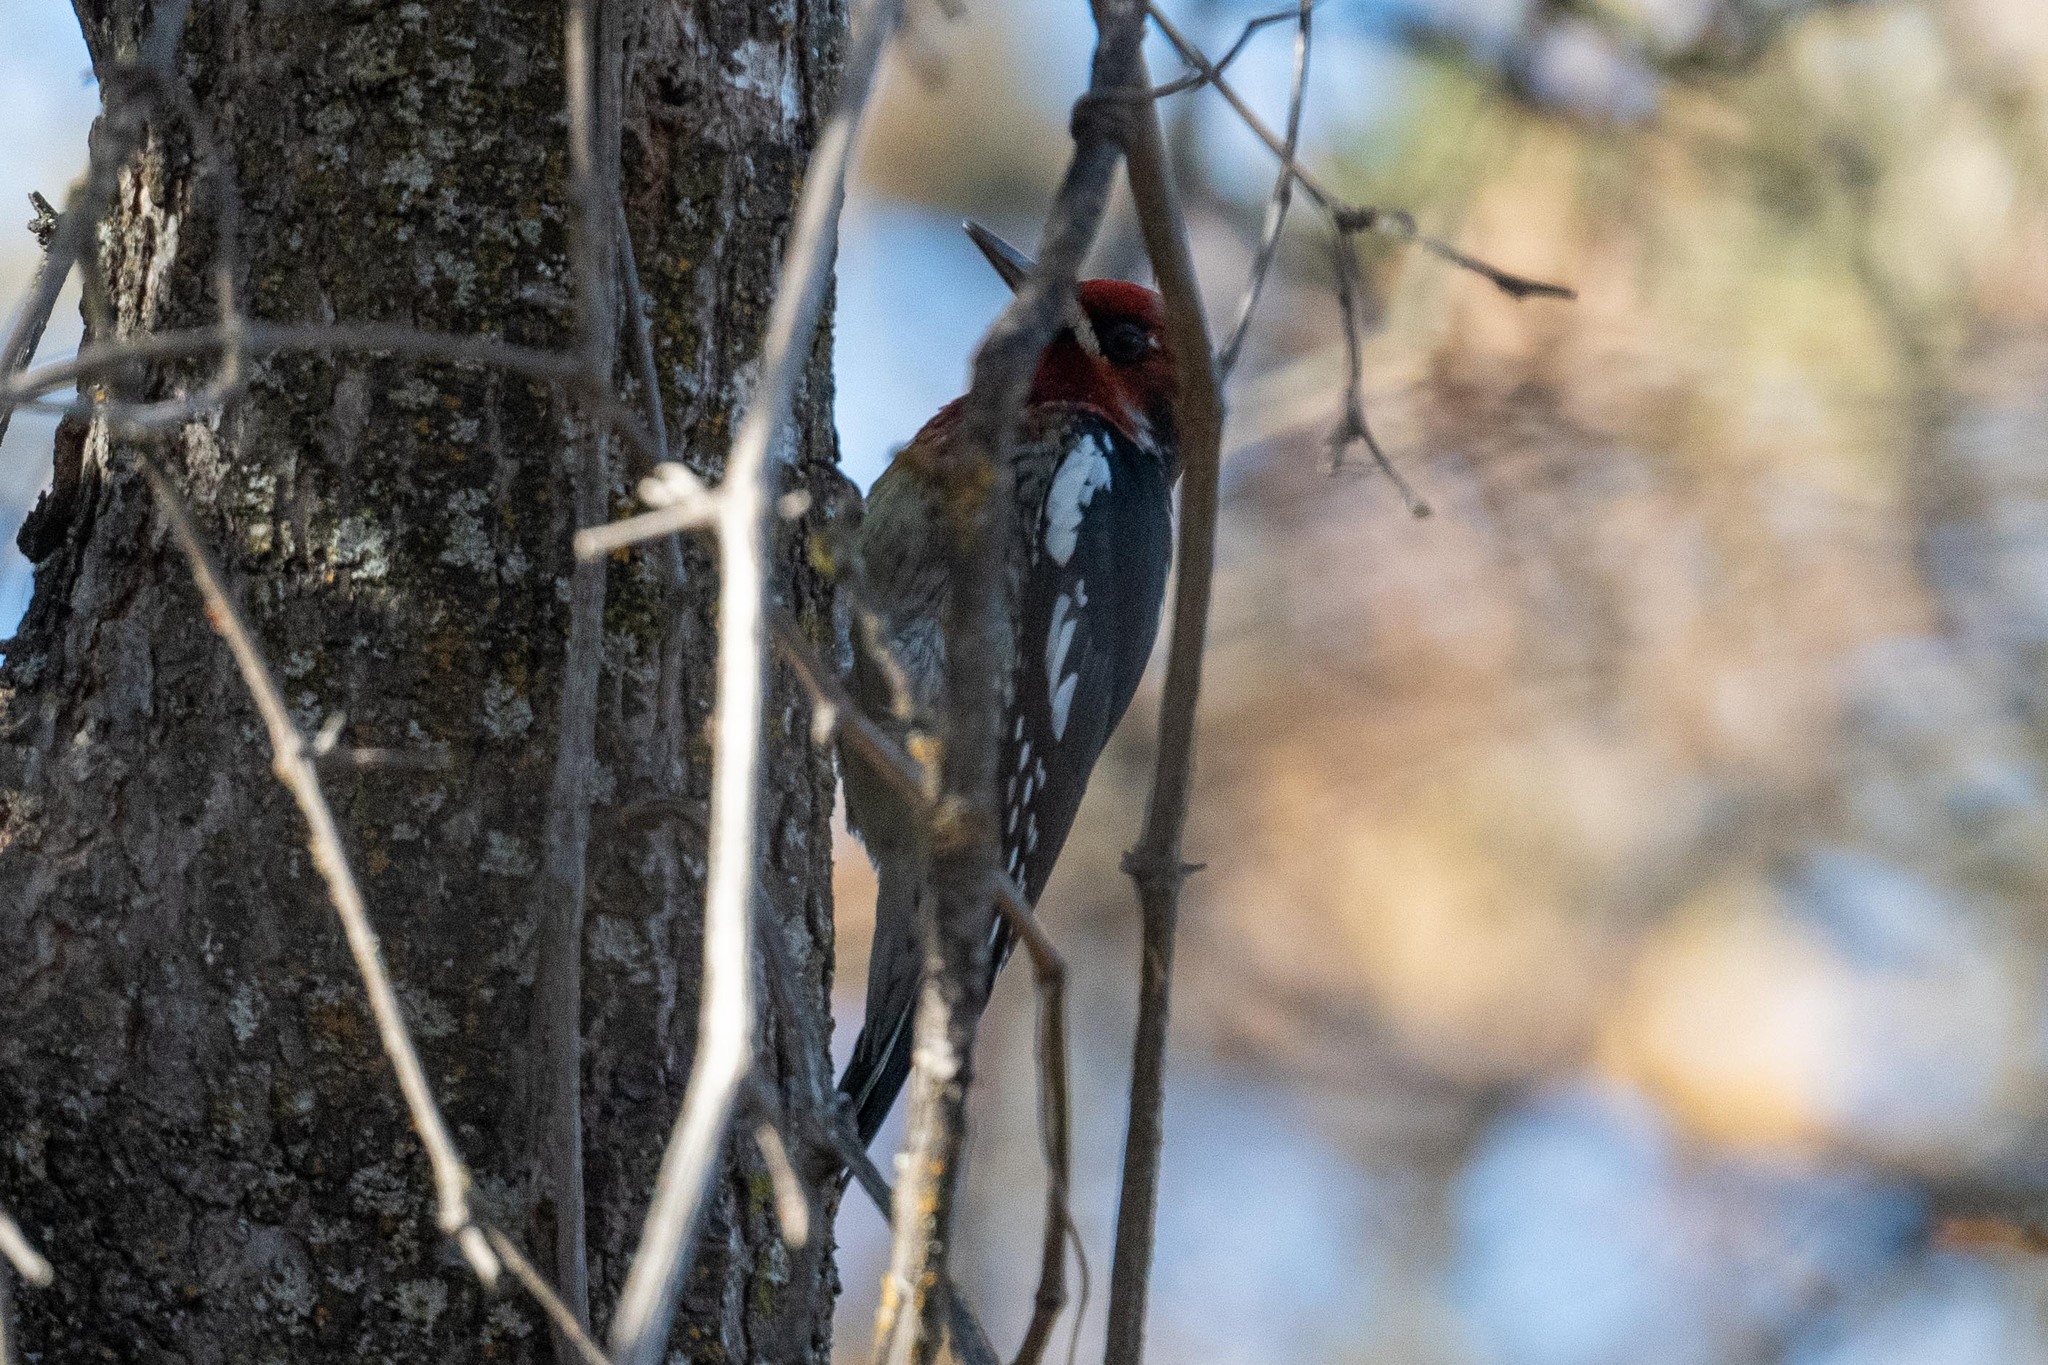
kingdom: Animalia
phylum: Chordata
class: Aves
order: Piciformes
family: Picidae
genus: Sphyrapicus
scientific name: Sphyrapicus ruber
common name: Red-breasted sapsucker
